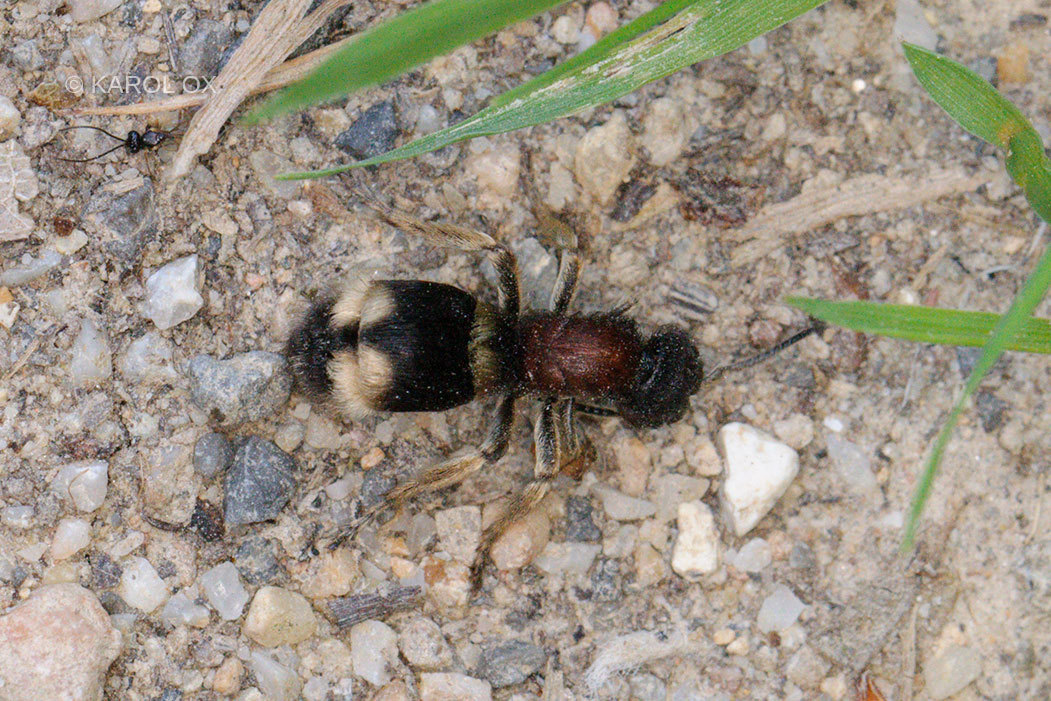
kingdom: Animalia
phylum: Arthropoda
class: Insecta
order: Hymenoptera
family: Mutillidae
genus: Mutilla
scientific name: Mutilla marginata
